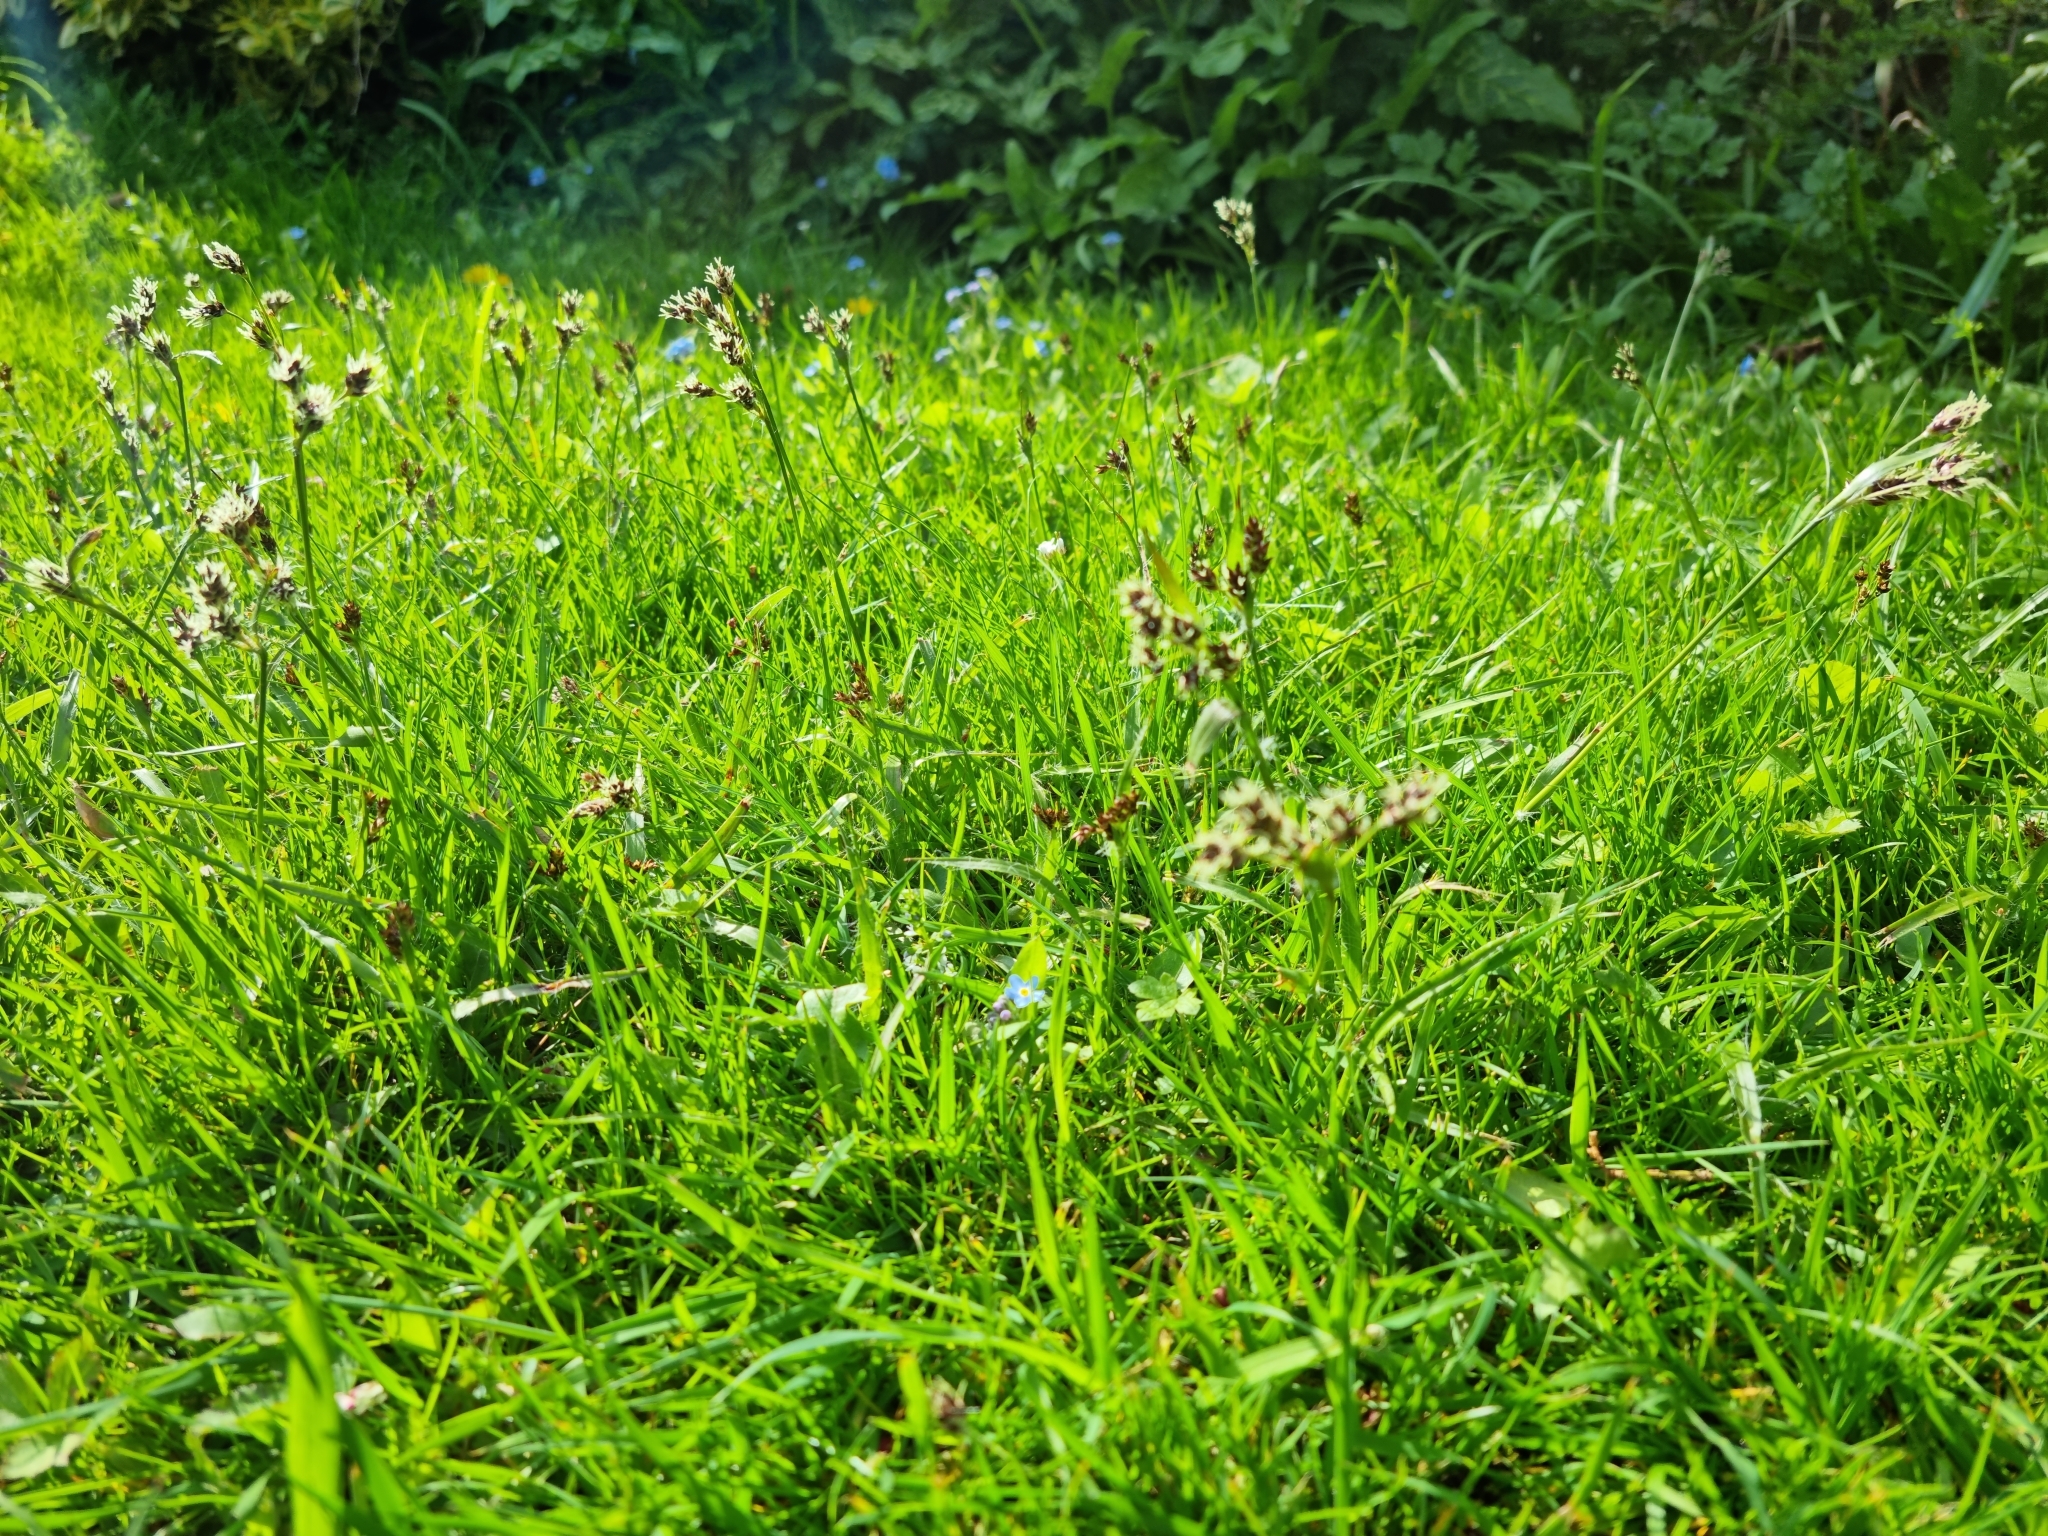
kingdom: Plantae
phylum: Tracheophyta
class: Liliopsida
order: Poales
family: Juncaceae
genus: Luzula
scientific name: Luzula campestris
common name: Field wood-rush
